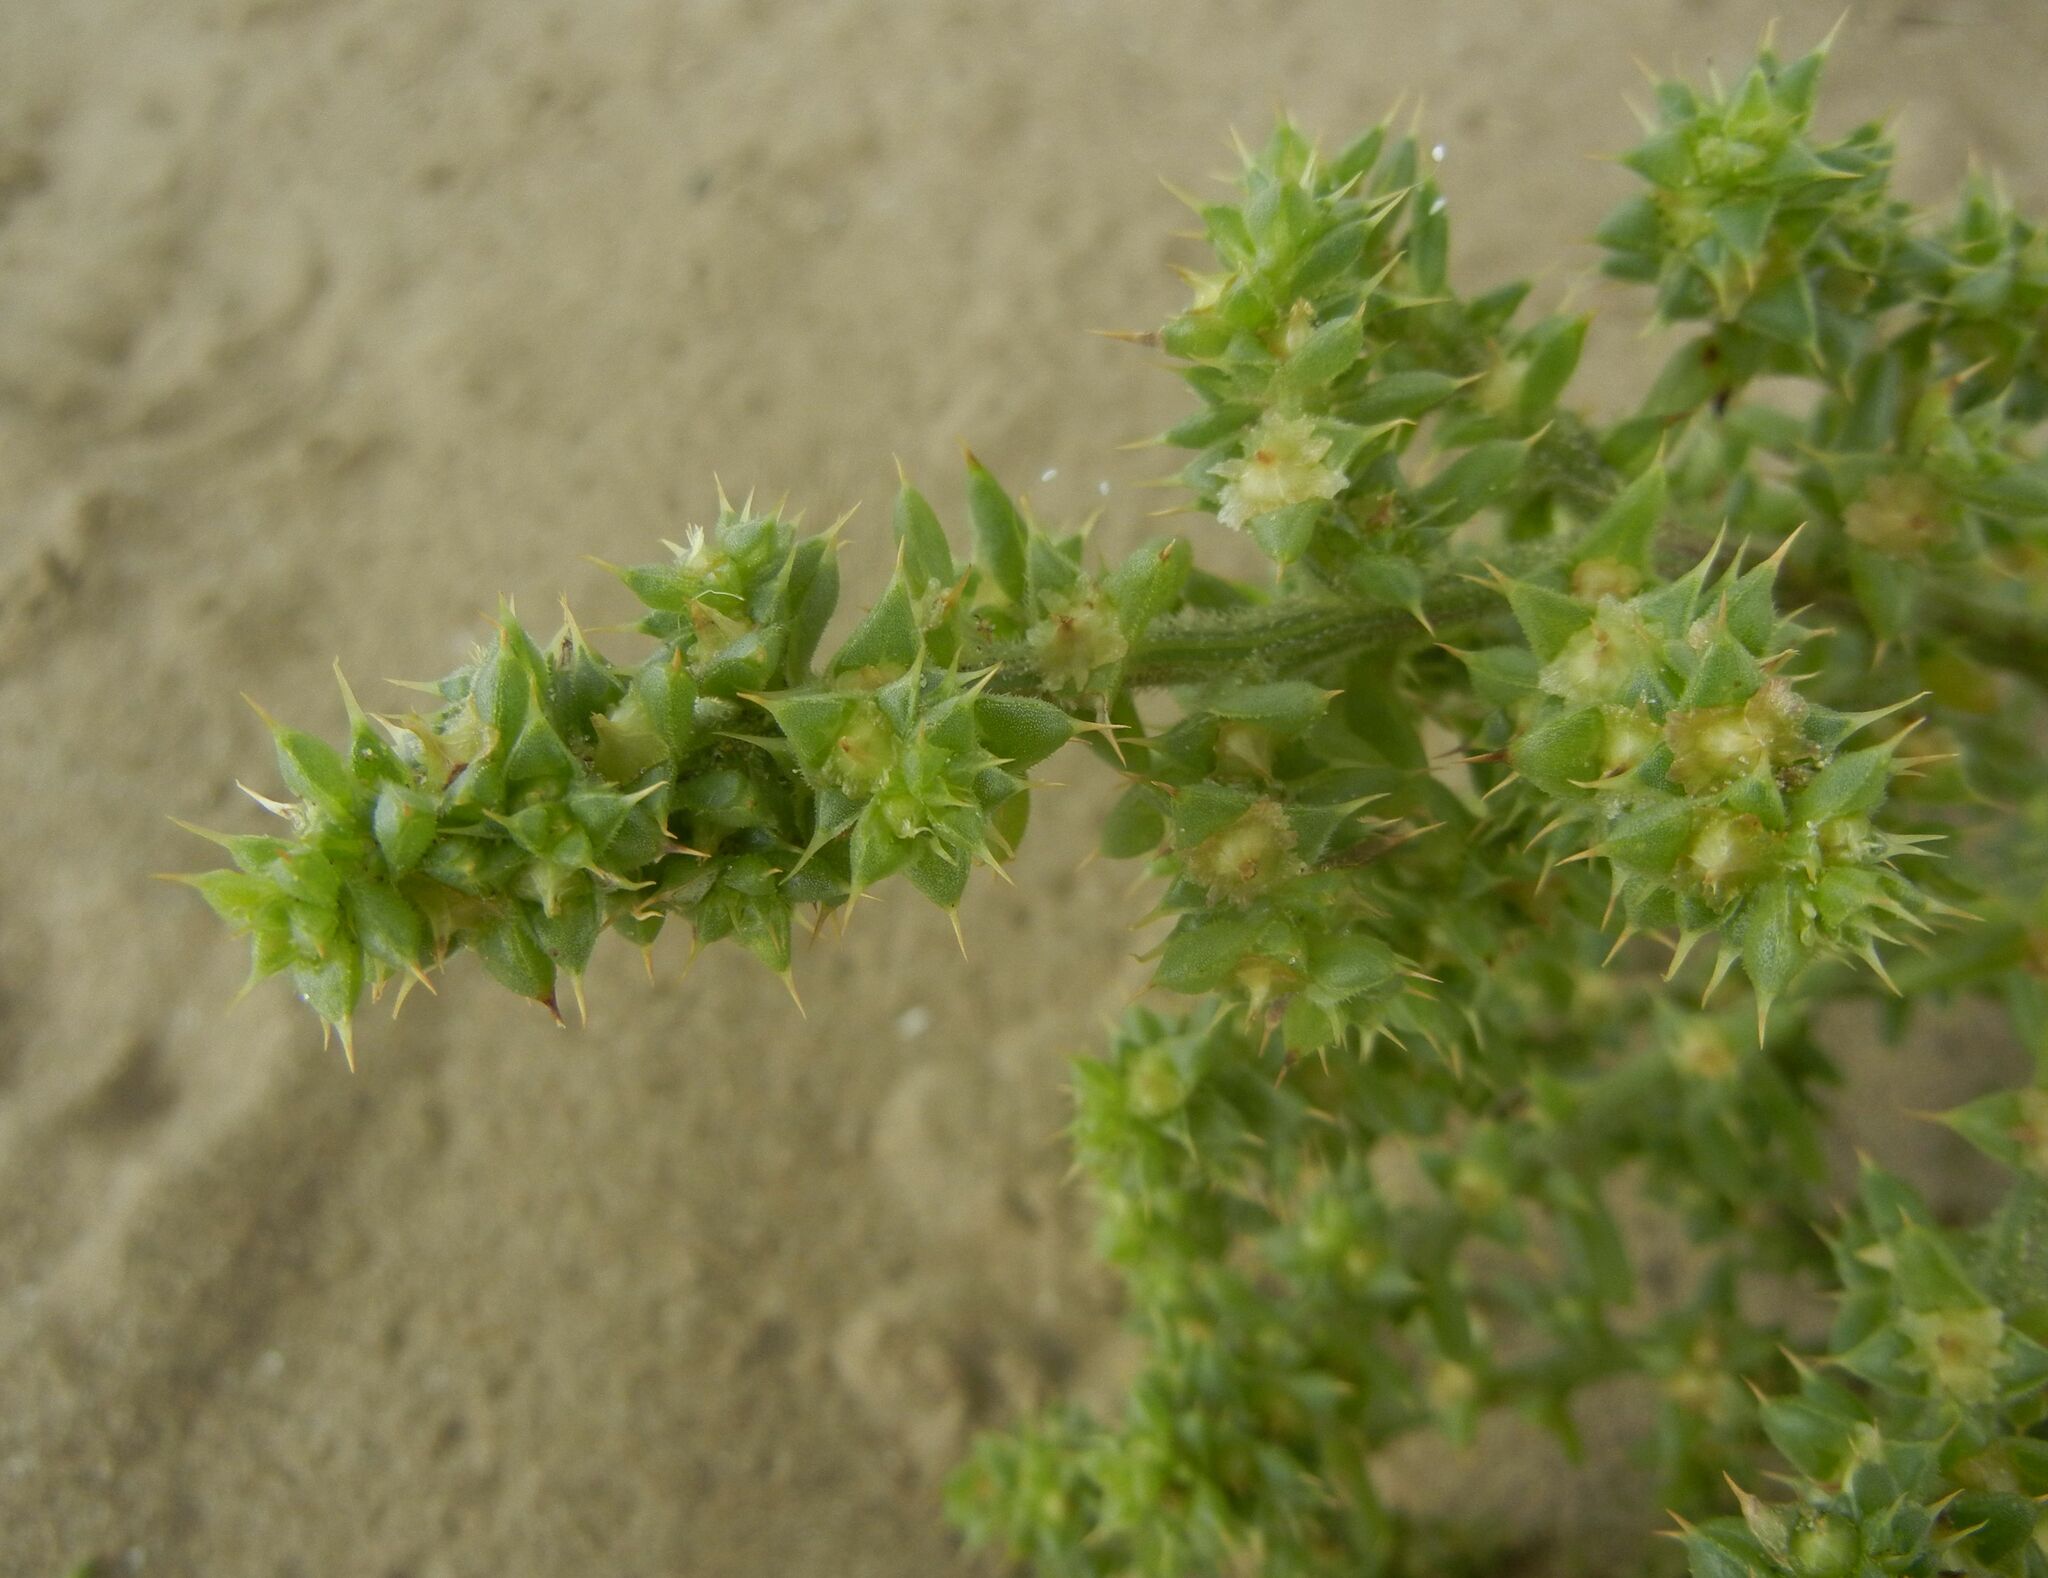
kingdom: Plantae
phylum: Tracheophyta
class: Magnoliopsida
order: Caryophyllales
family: Amaranthaceae
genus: Salsola
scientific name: Salsola kali
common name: Saltwort
